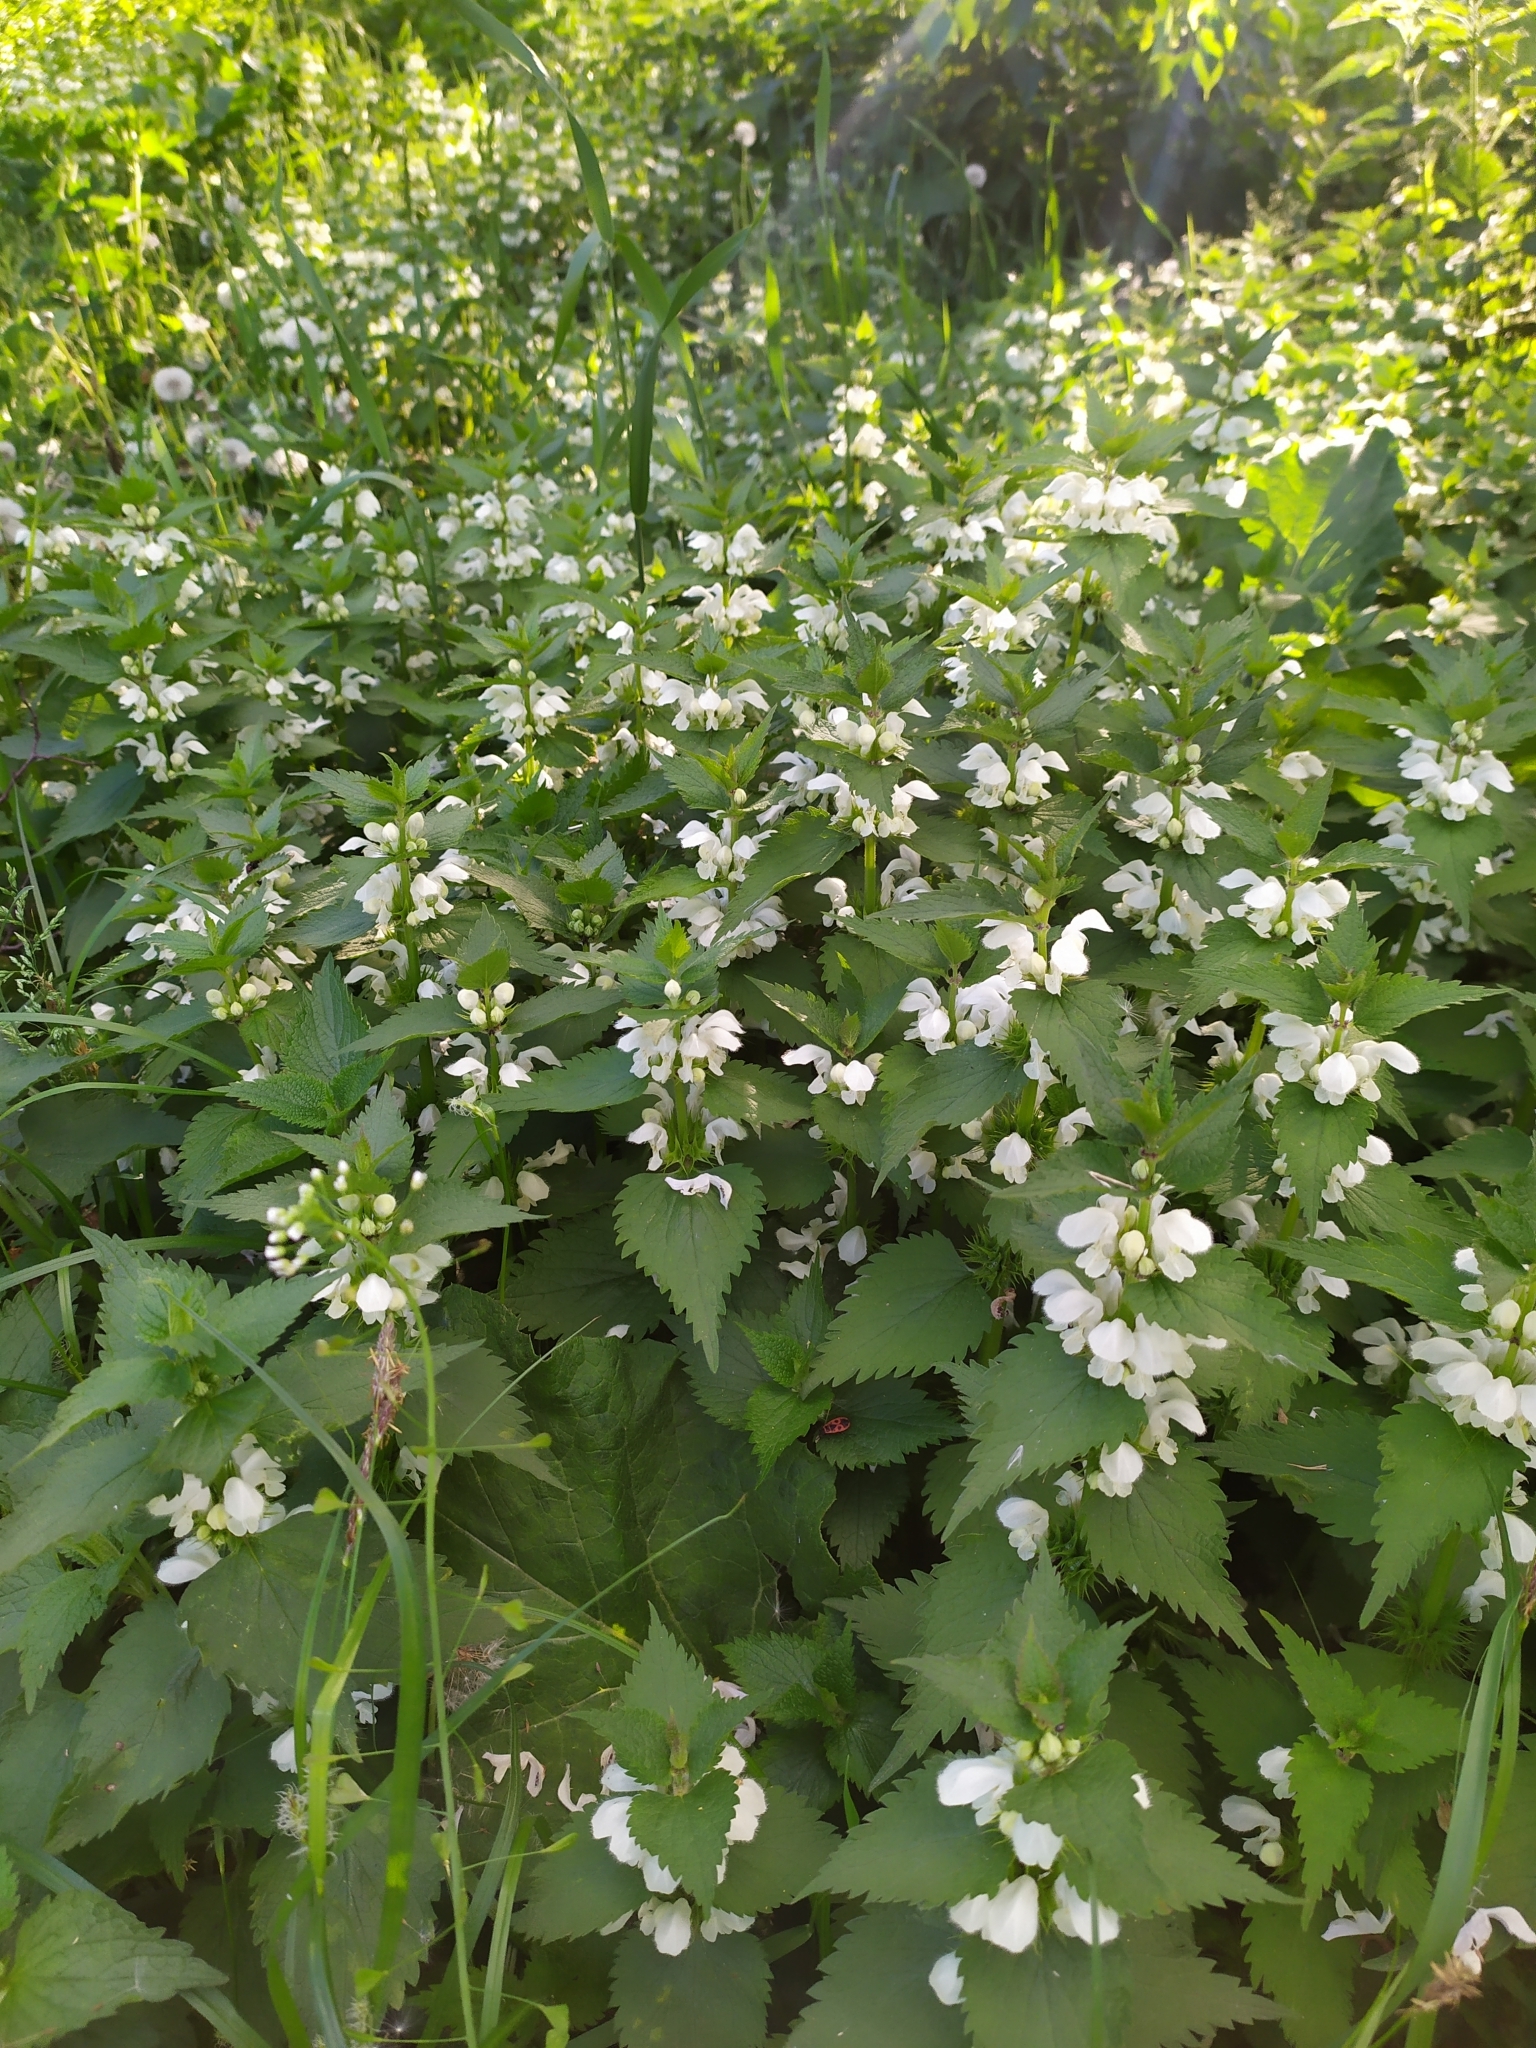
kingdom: Plantae
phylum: Tracheophyta
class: Magnoliopsida
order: Lamiales
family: Lamiaceae
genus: Lamium
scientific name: Lamium album
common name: White dead-nettle
